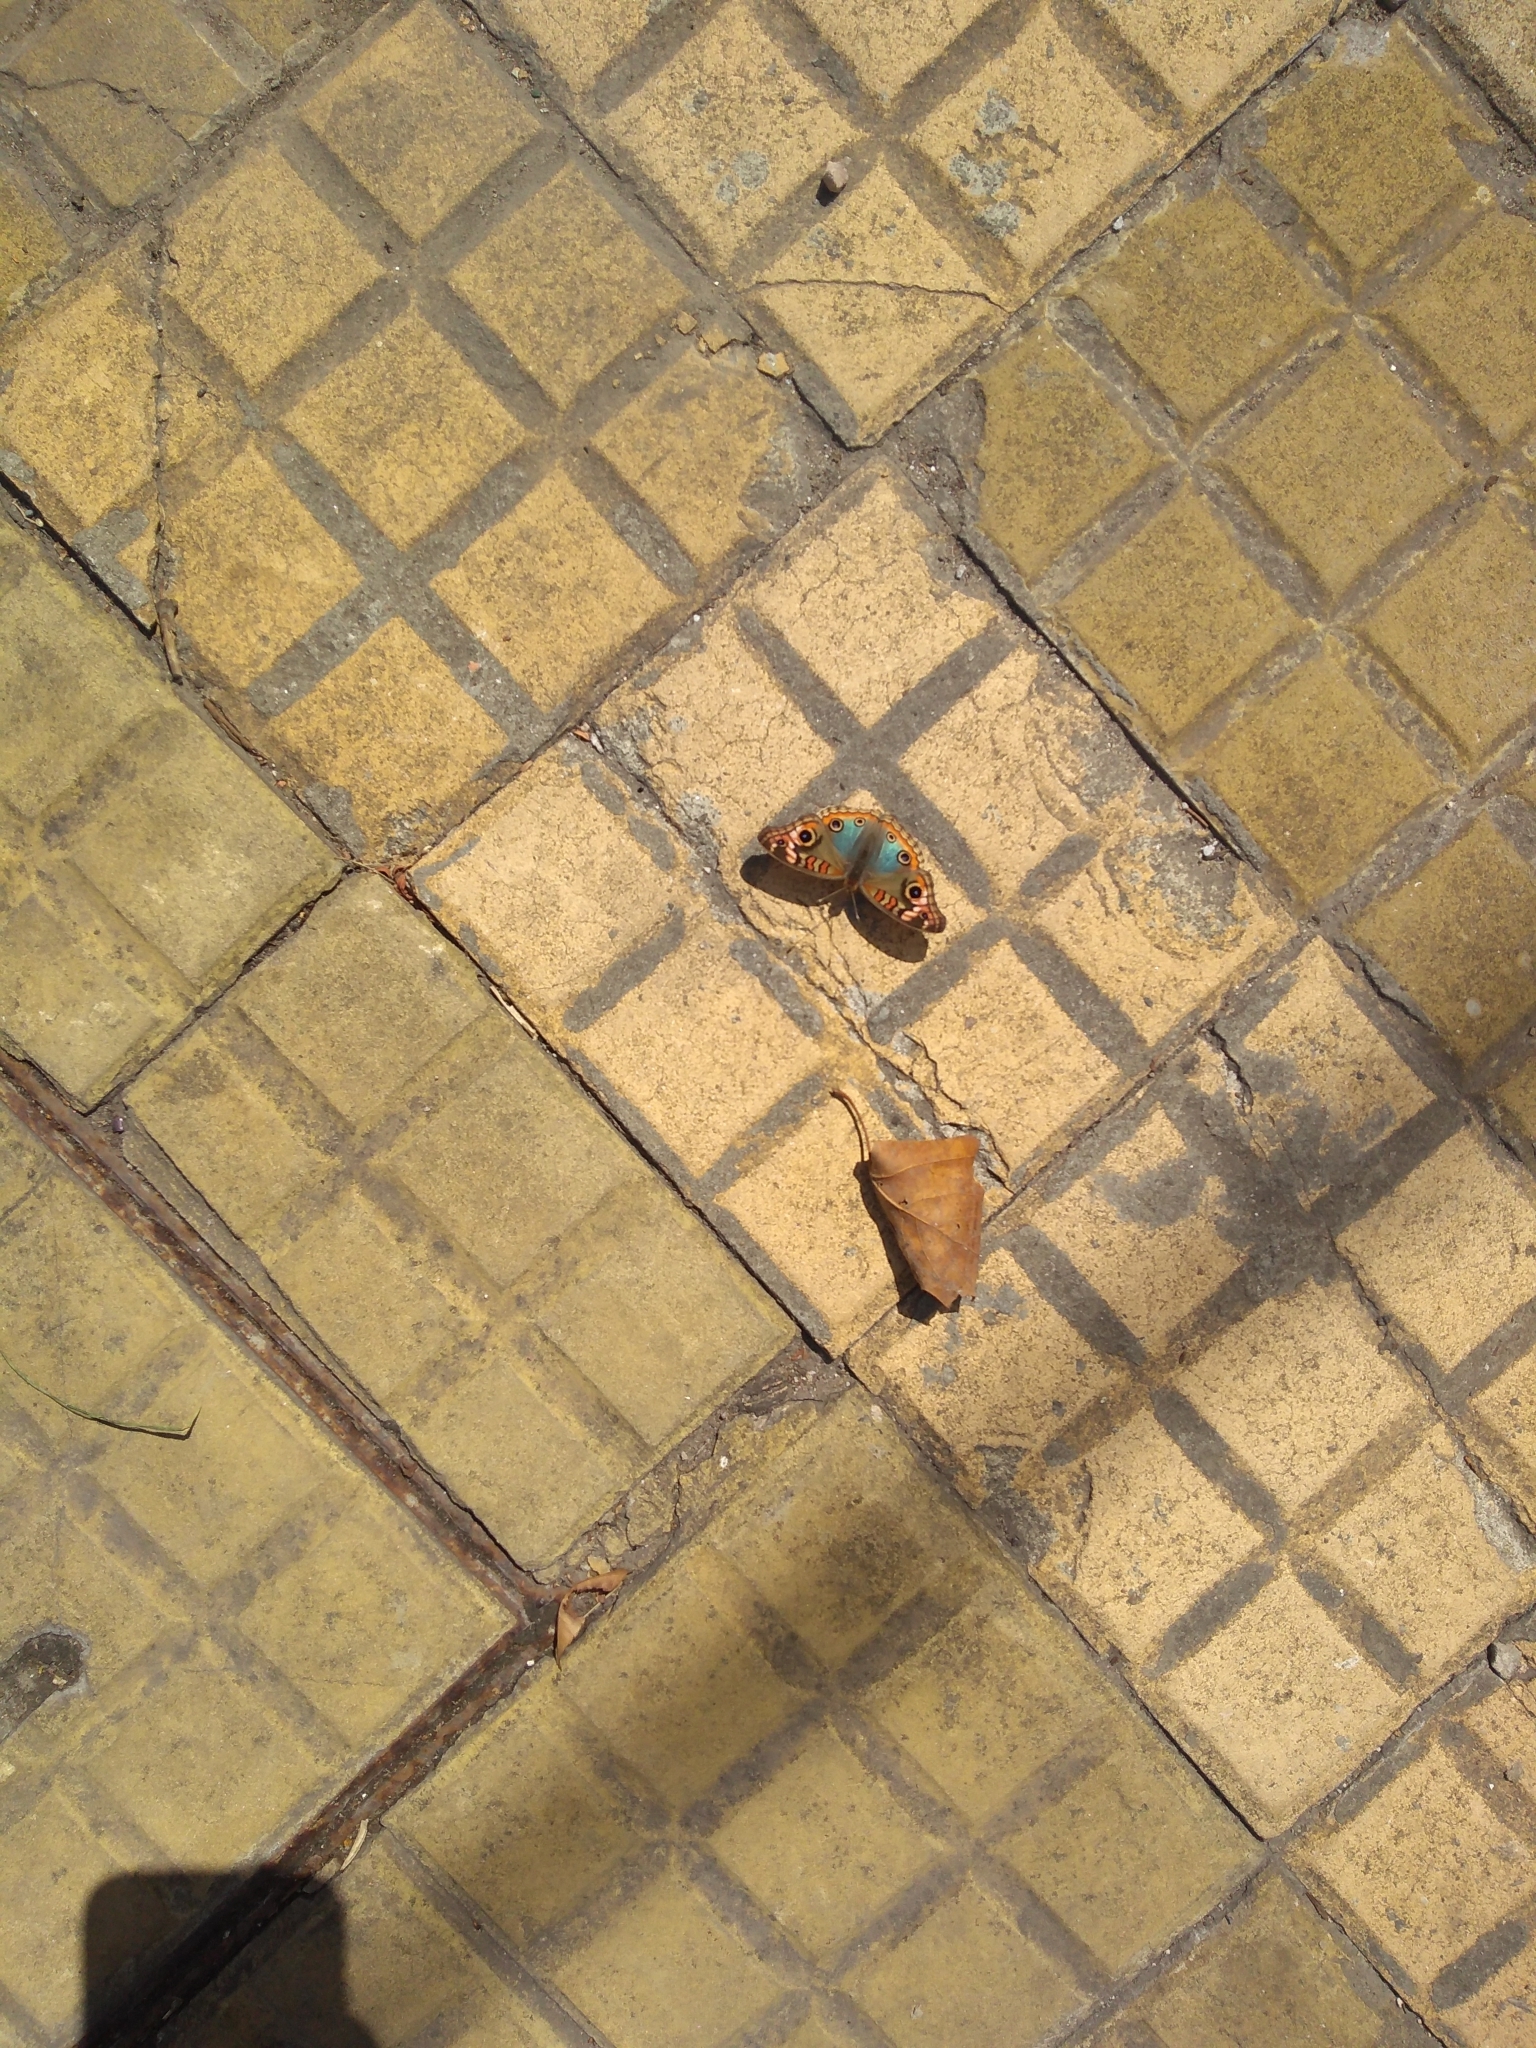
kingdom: Animalia
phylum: Arthropoda
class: Insecta
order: Lepidoptera
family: Nymphalidae
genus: Junonia
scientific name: Junonia lavinia
